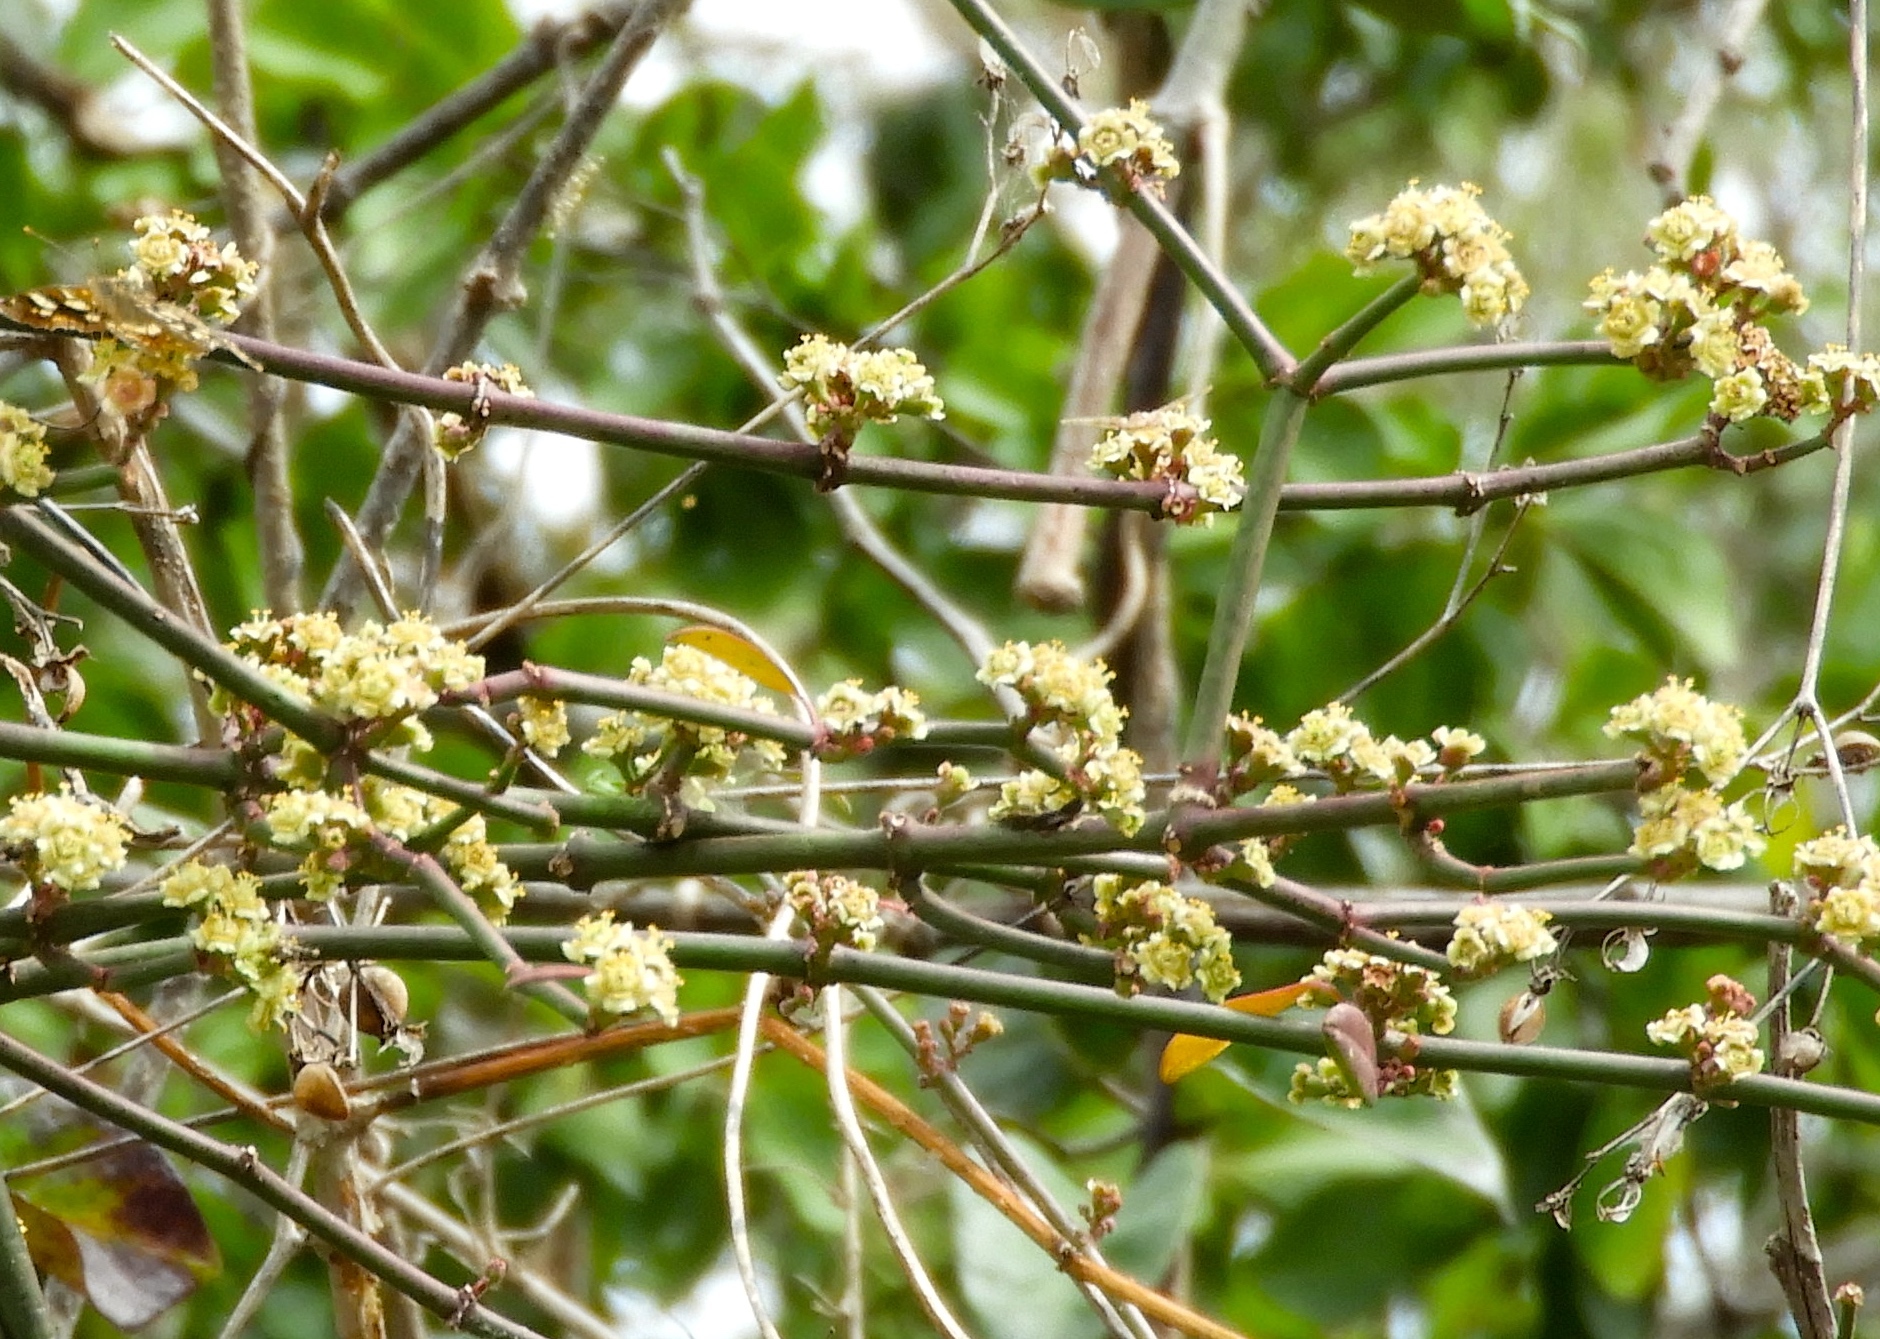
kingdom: Plantae
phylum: Tracheophyta
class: Magnoliopsida
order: Malpighiales
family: Euphorbiaceae
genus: Euphorbia
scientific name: Euphorbia cymosa
